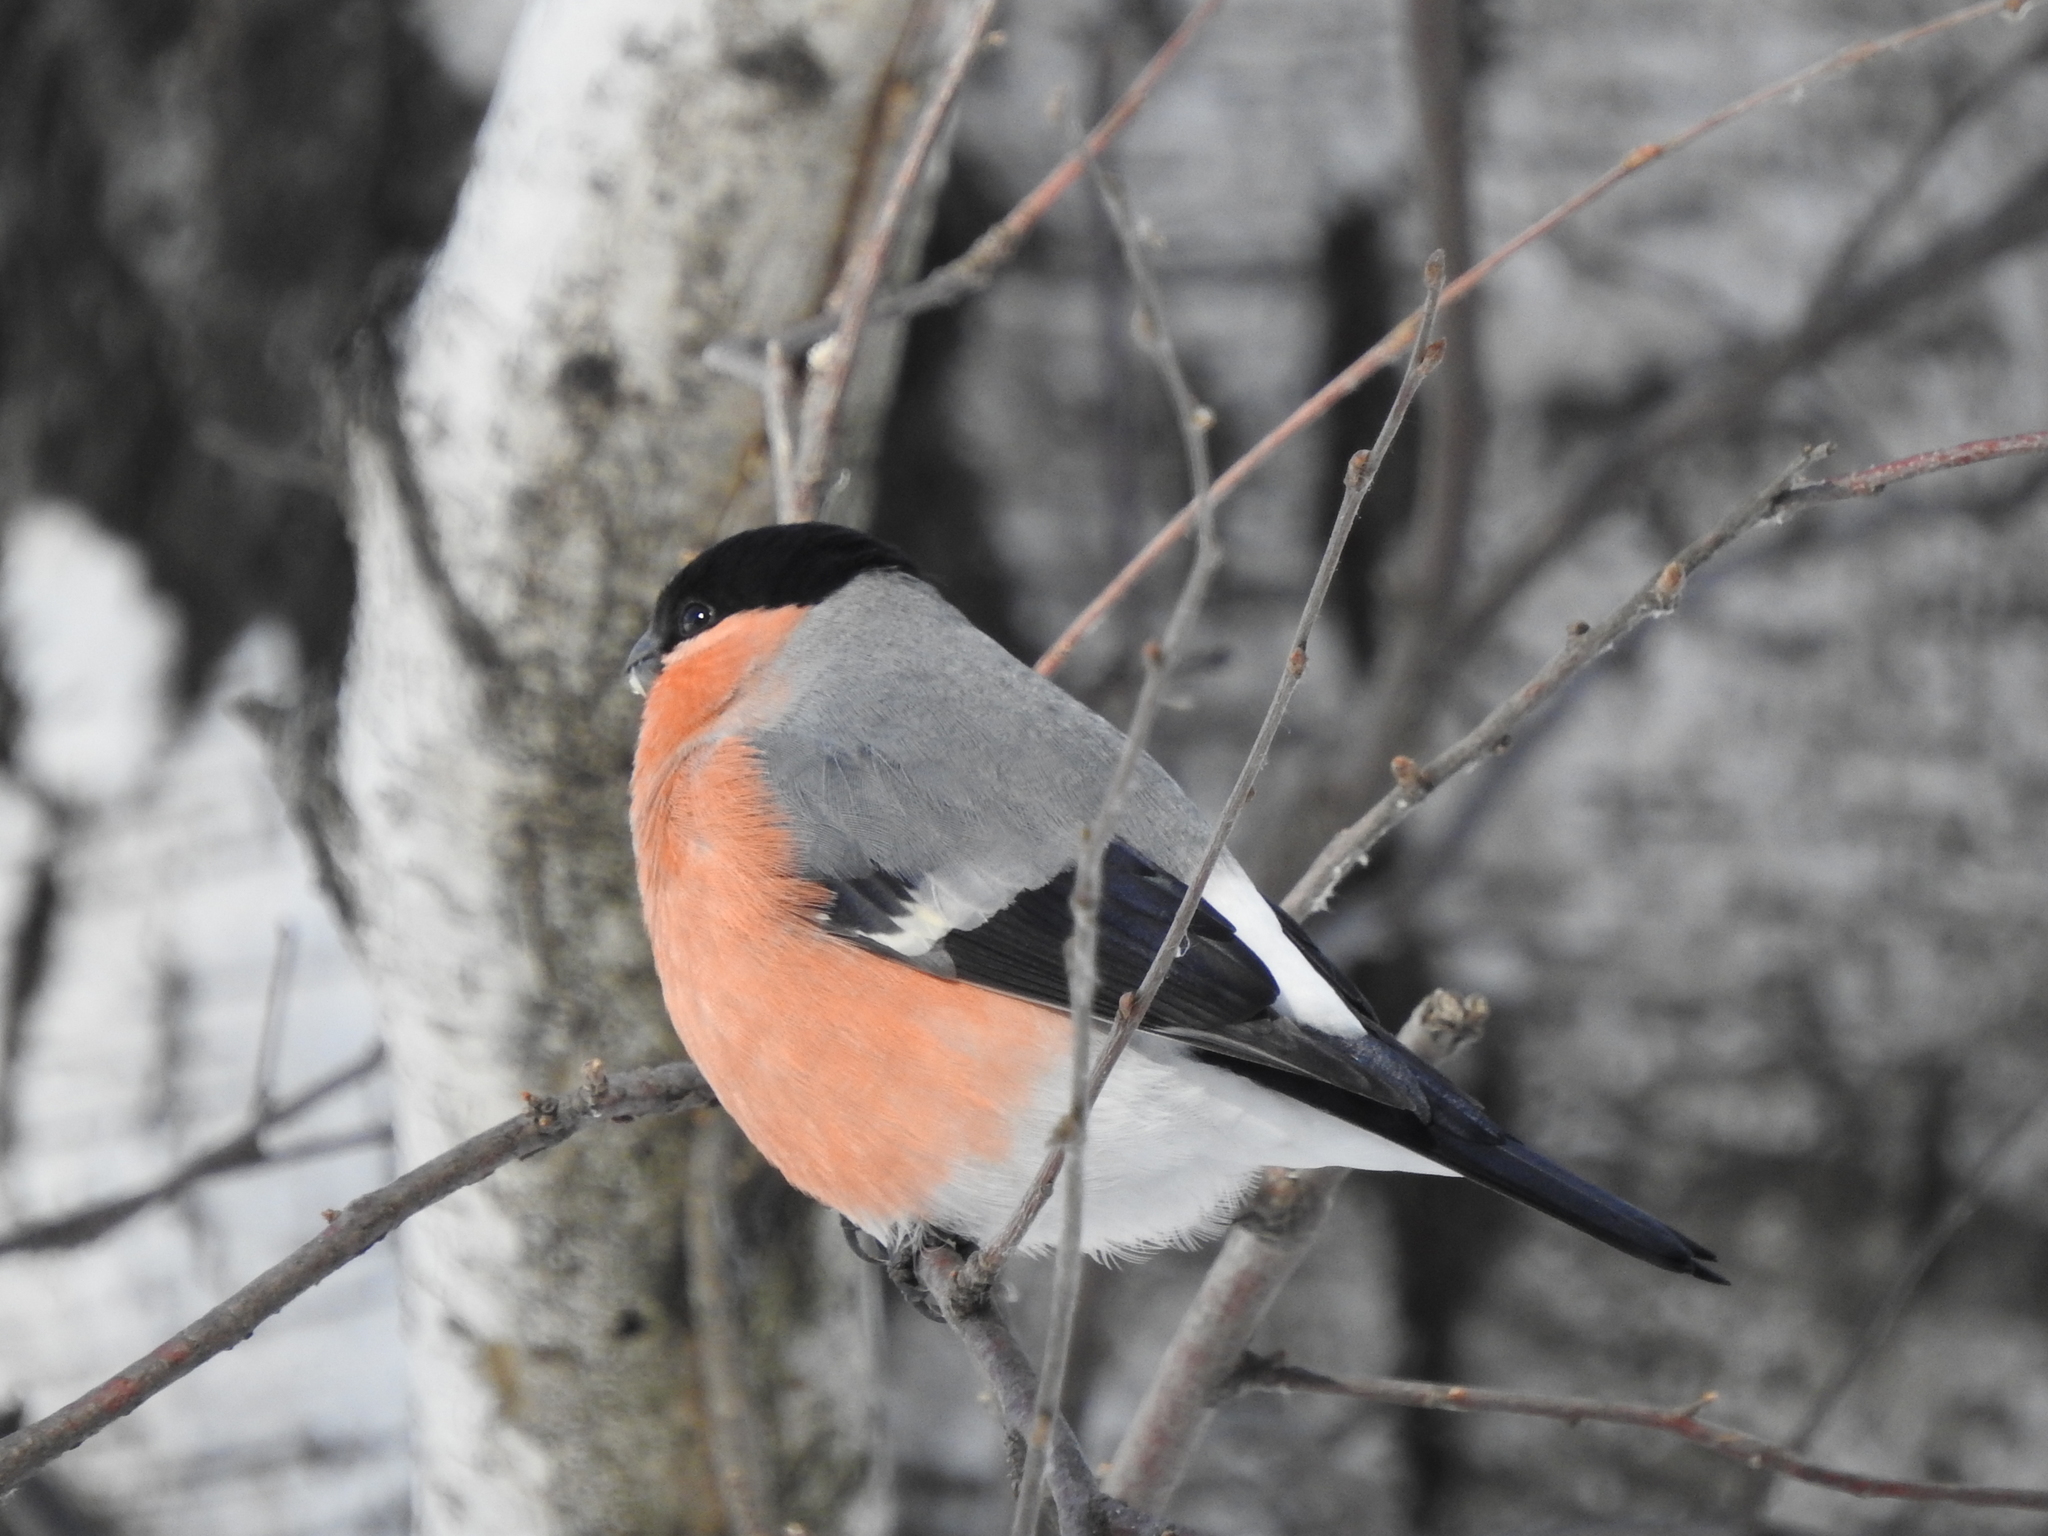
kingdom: Animalia
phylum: Chordata
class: Aves
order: Passeriformes
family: Fringillidae
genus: Pyrrhula
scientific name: Pyrrhula pyrrhula
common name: Eurasian bullfinch
